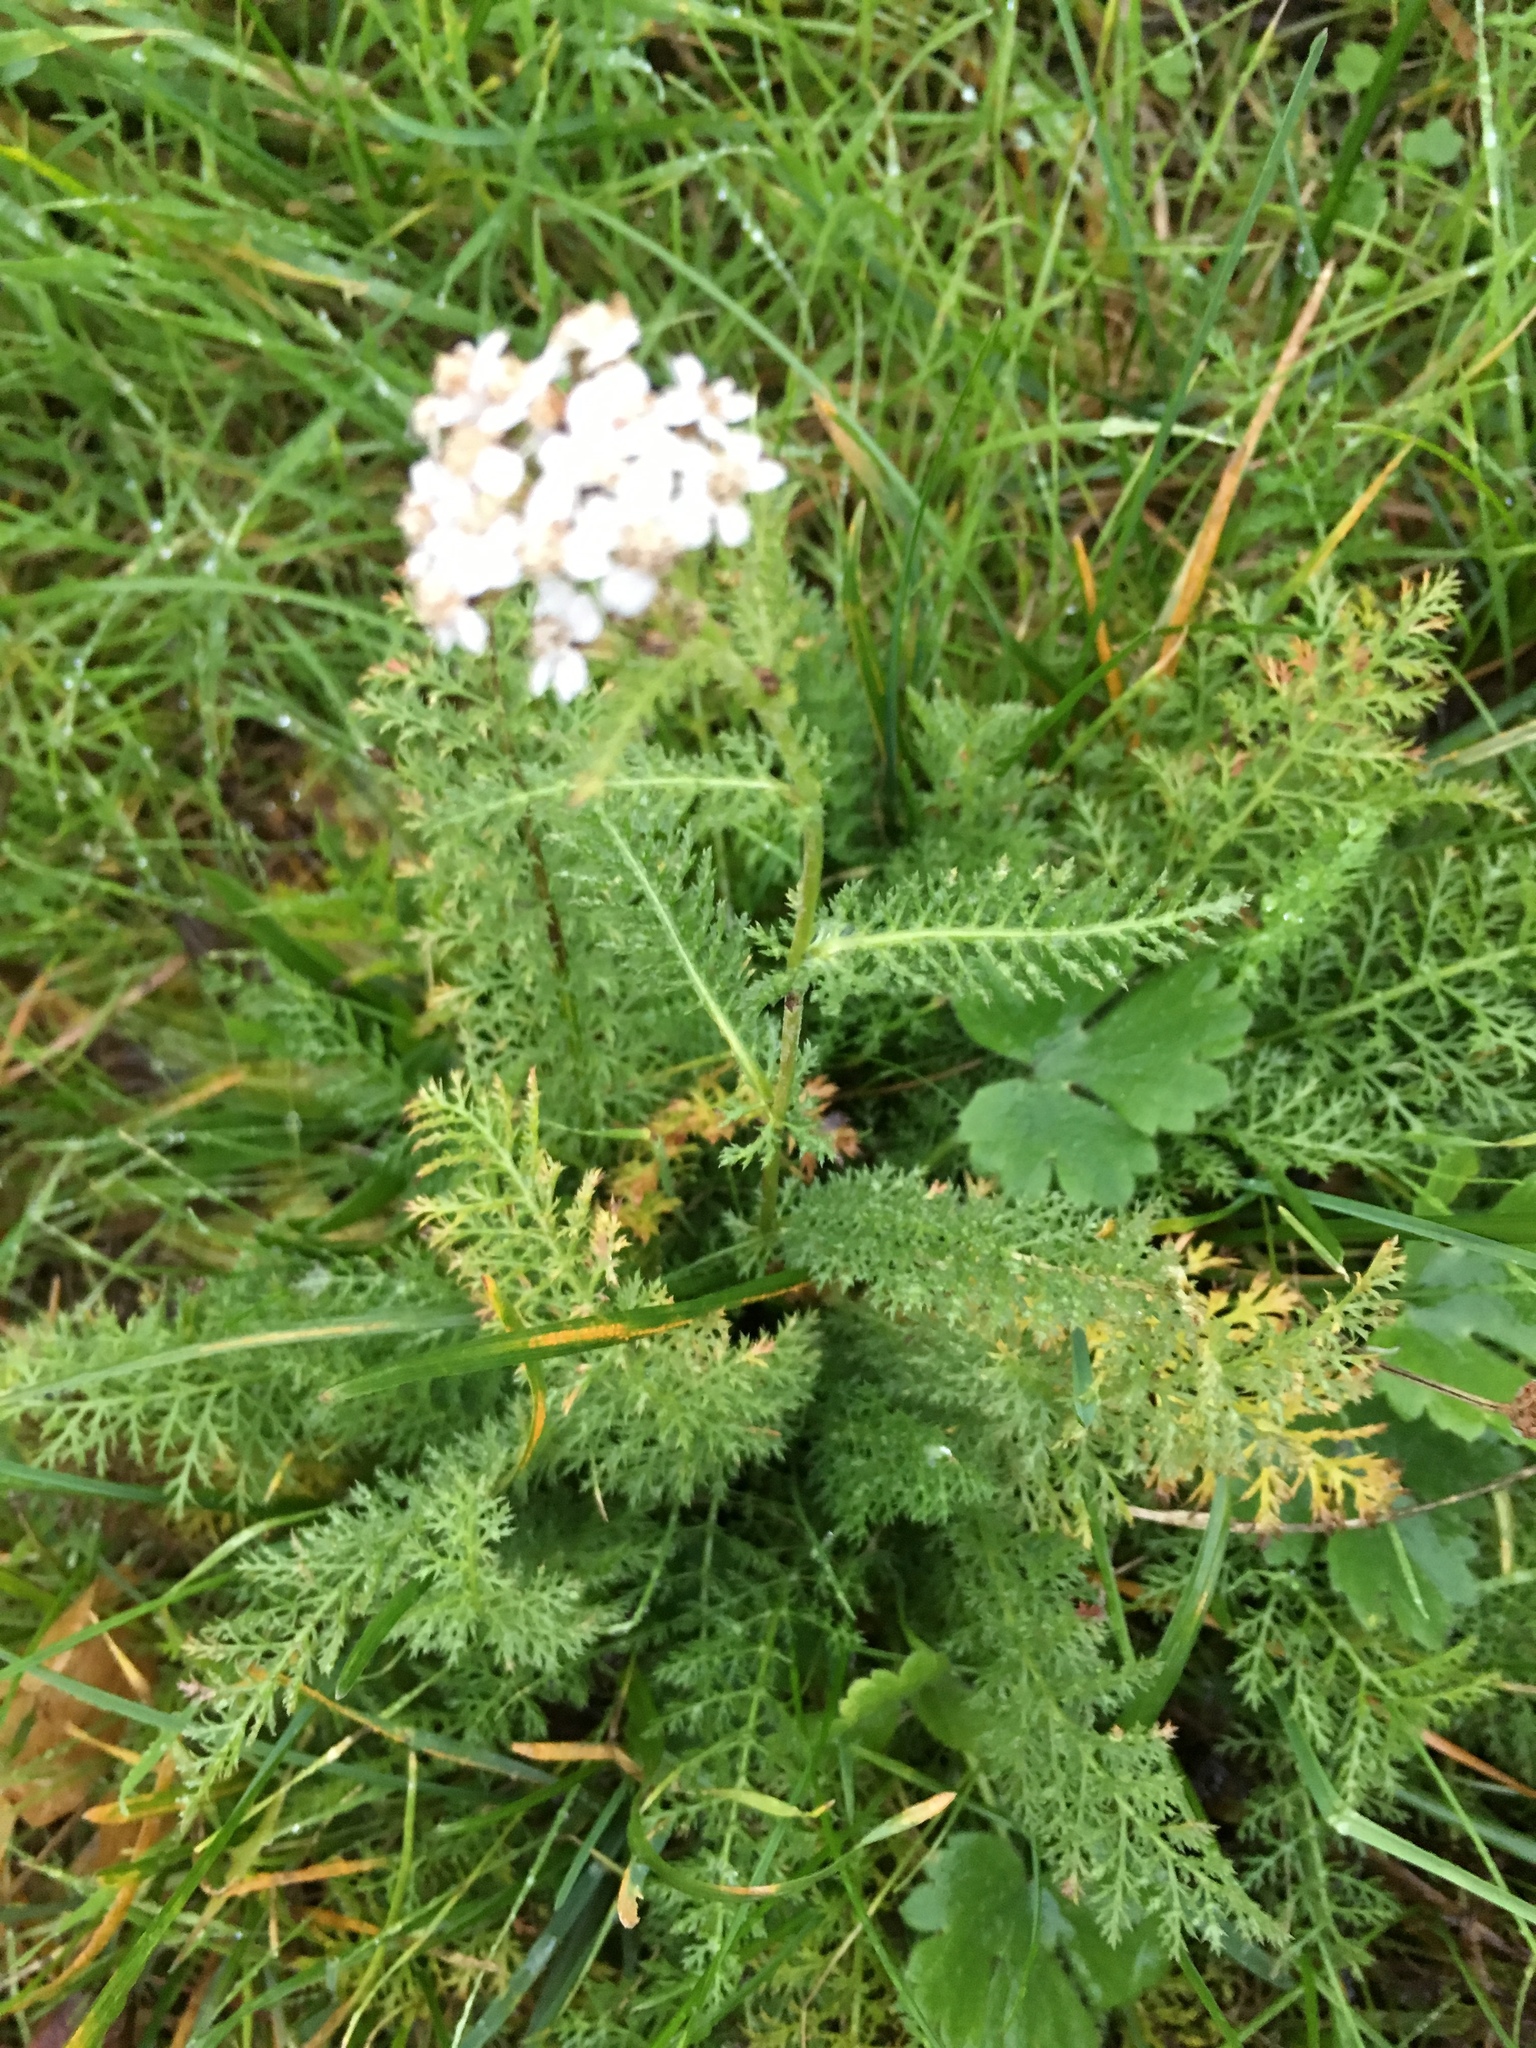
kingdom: Plantae
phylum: Tracheophyta
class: Magnoliopsida
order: Asterales
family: Asteraceae
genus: Achillea
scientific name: Achillea millefolium
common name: Yarrow
